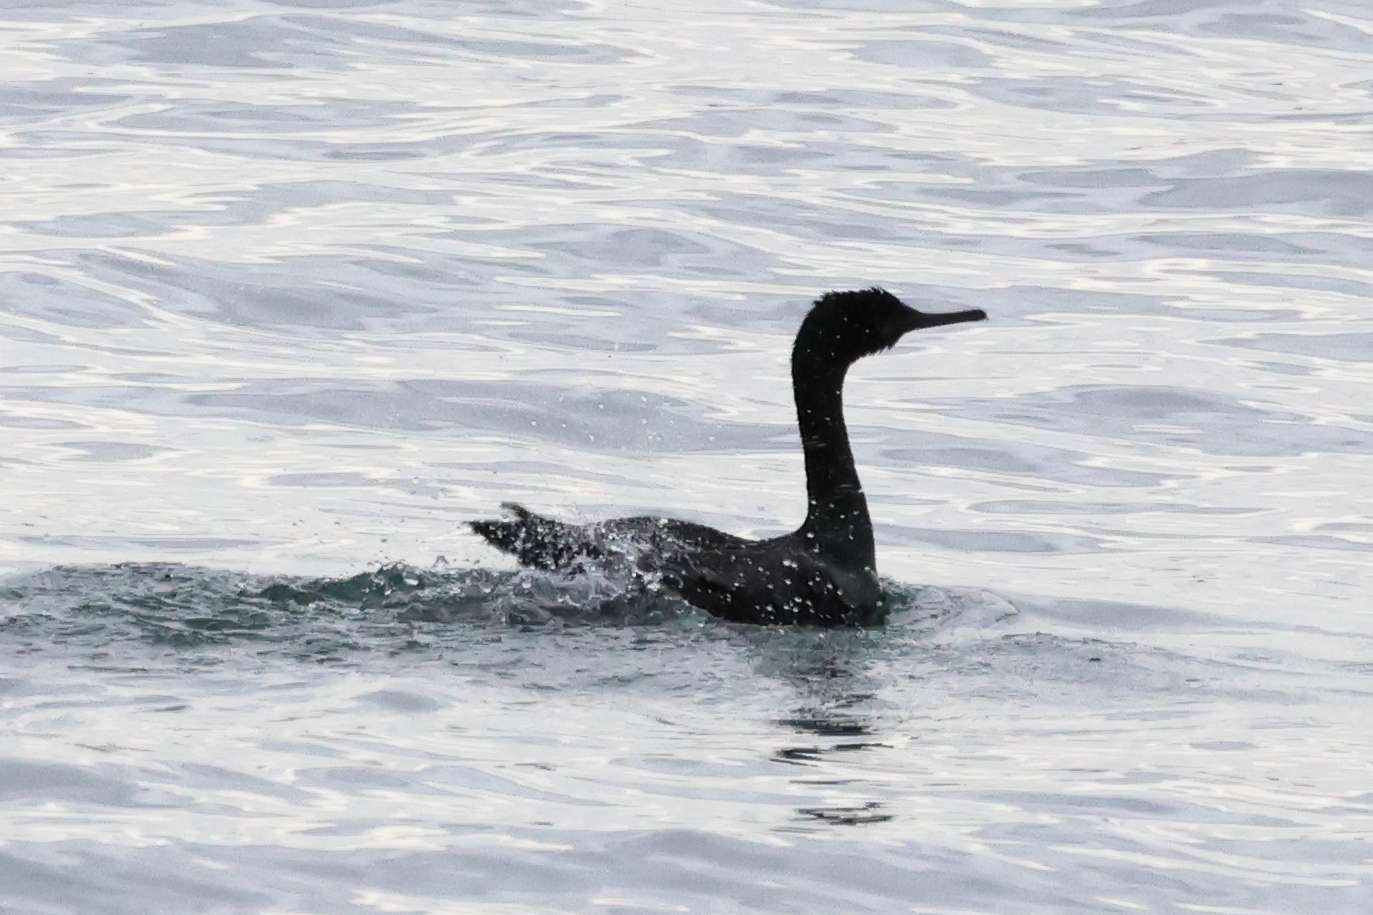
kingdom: Animalia
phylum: Chordata
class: Aves
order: Suliformes
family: Phalacrocoracidae
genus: Phalacrocorax
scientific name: Phalacrocorax pelagicus
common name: Pelagic cormorant
